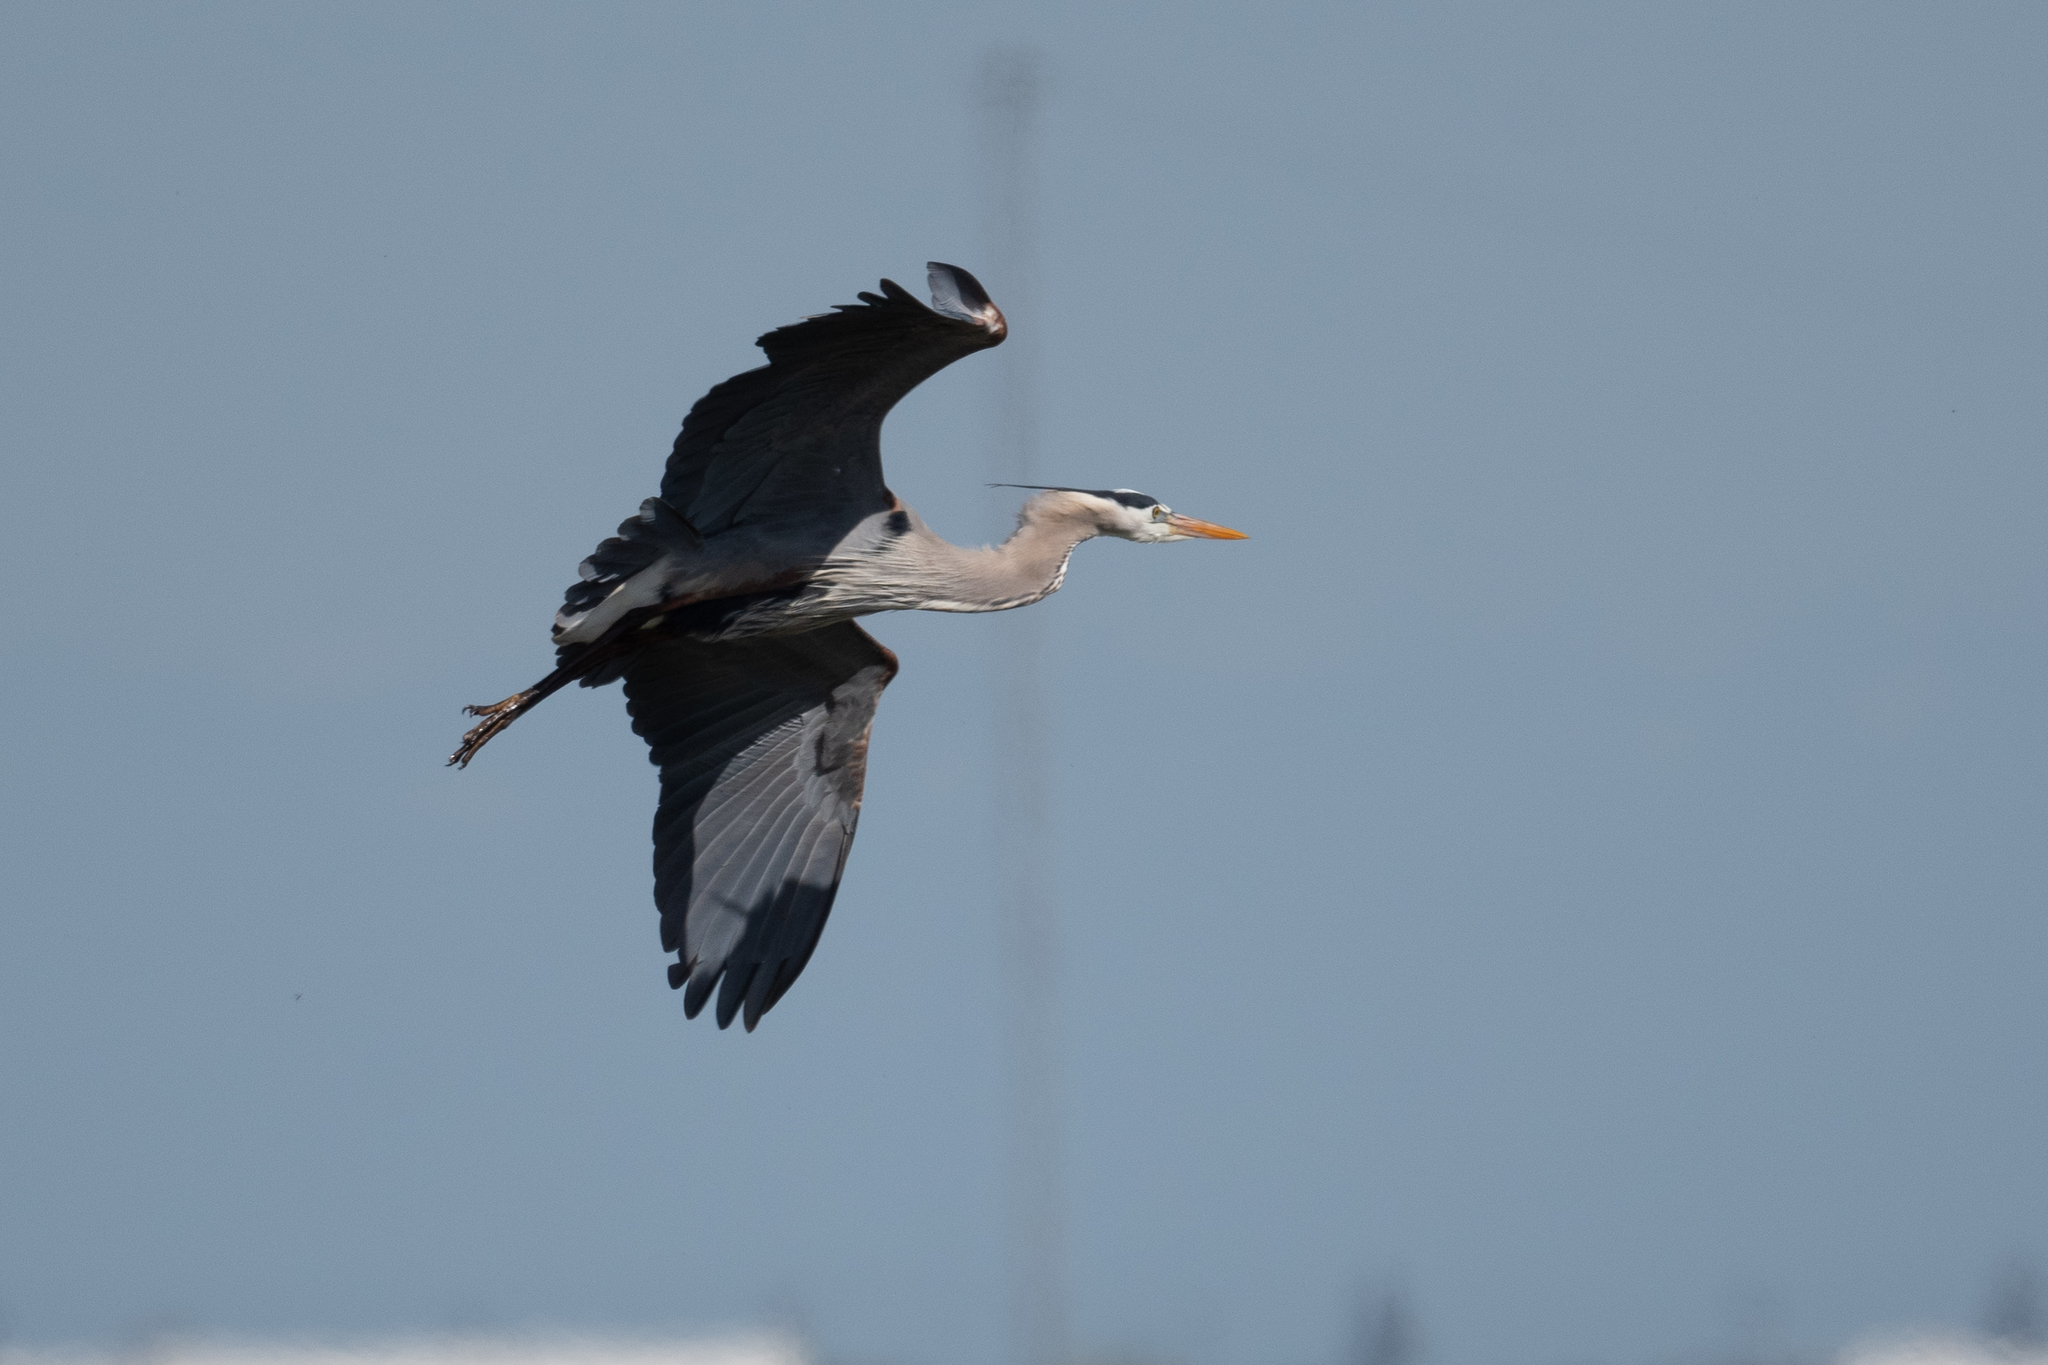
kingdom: Animalia
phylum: Chordata
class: Aves
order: Pelecaniformes
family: Ardeidae
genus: Ardea
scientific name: Ardea herodias
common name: Great blue heron
